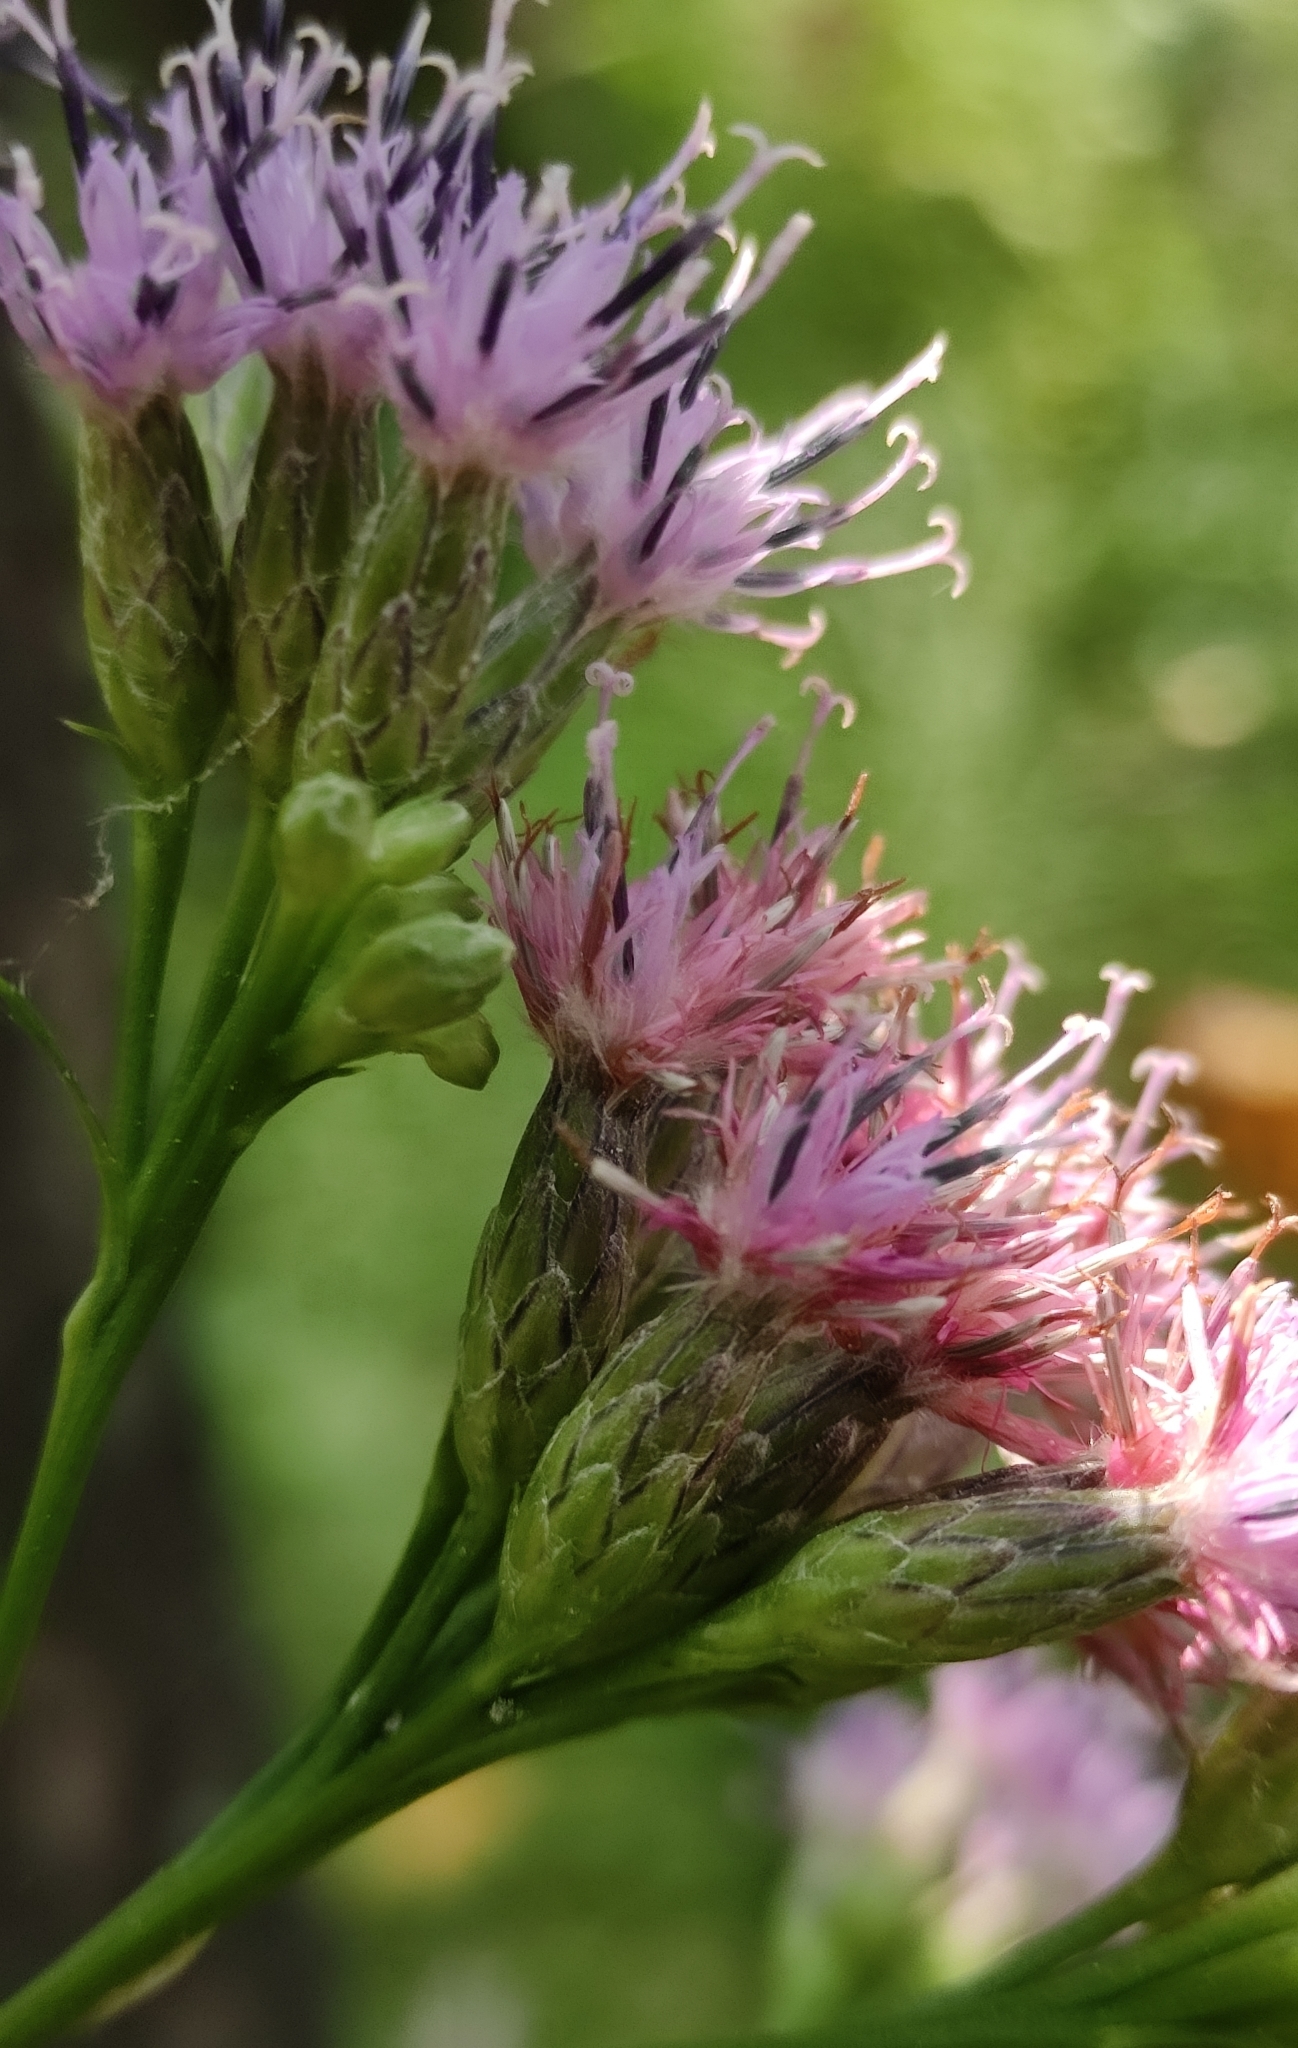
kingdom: Plantae
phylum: Tracheophyta
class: Magnoliopsida
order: Asterales
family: Asteraceae
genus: Saussurea
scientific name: Saussurea parviflora
